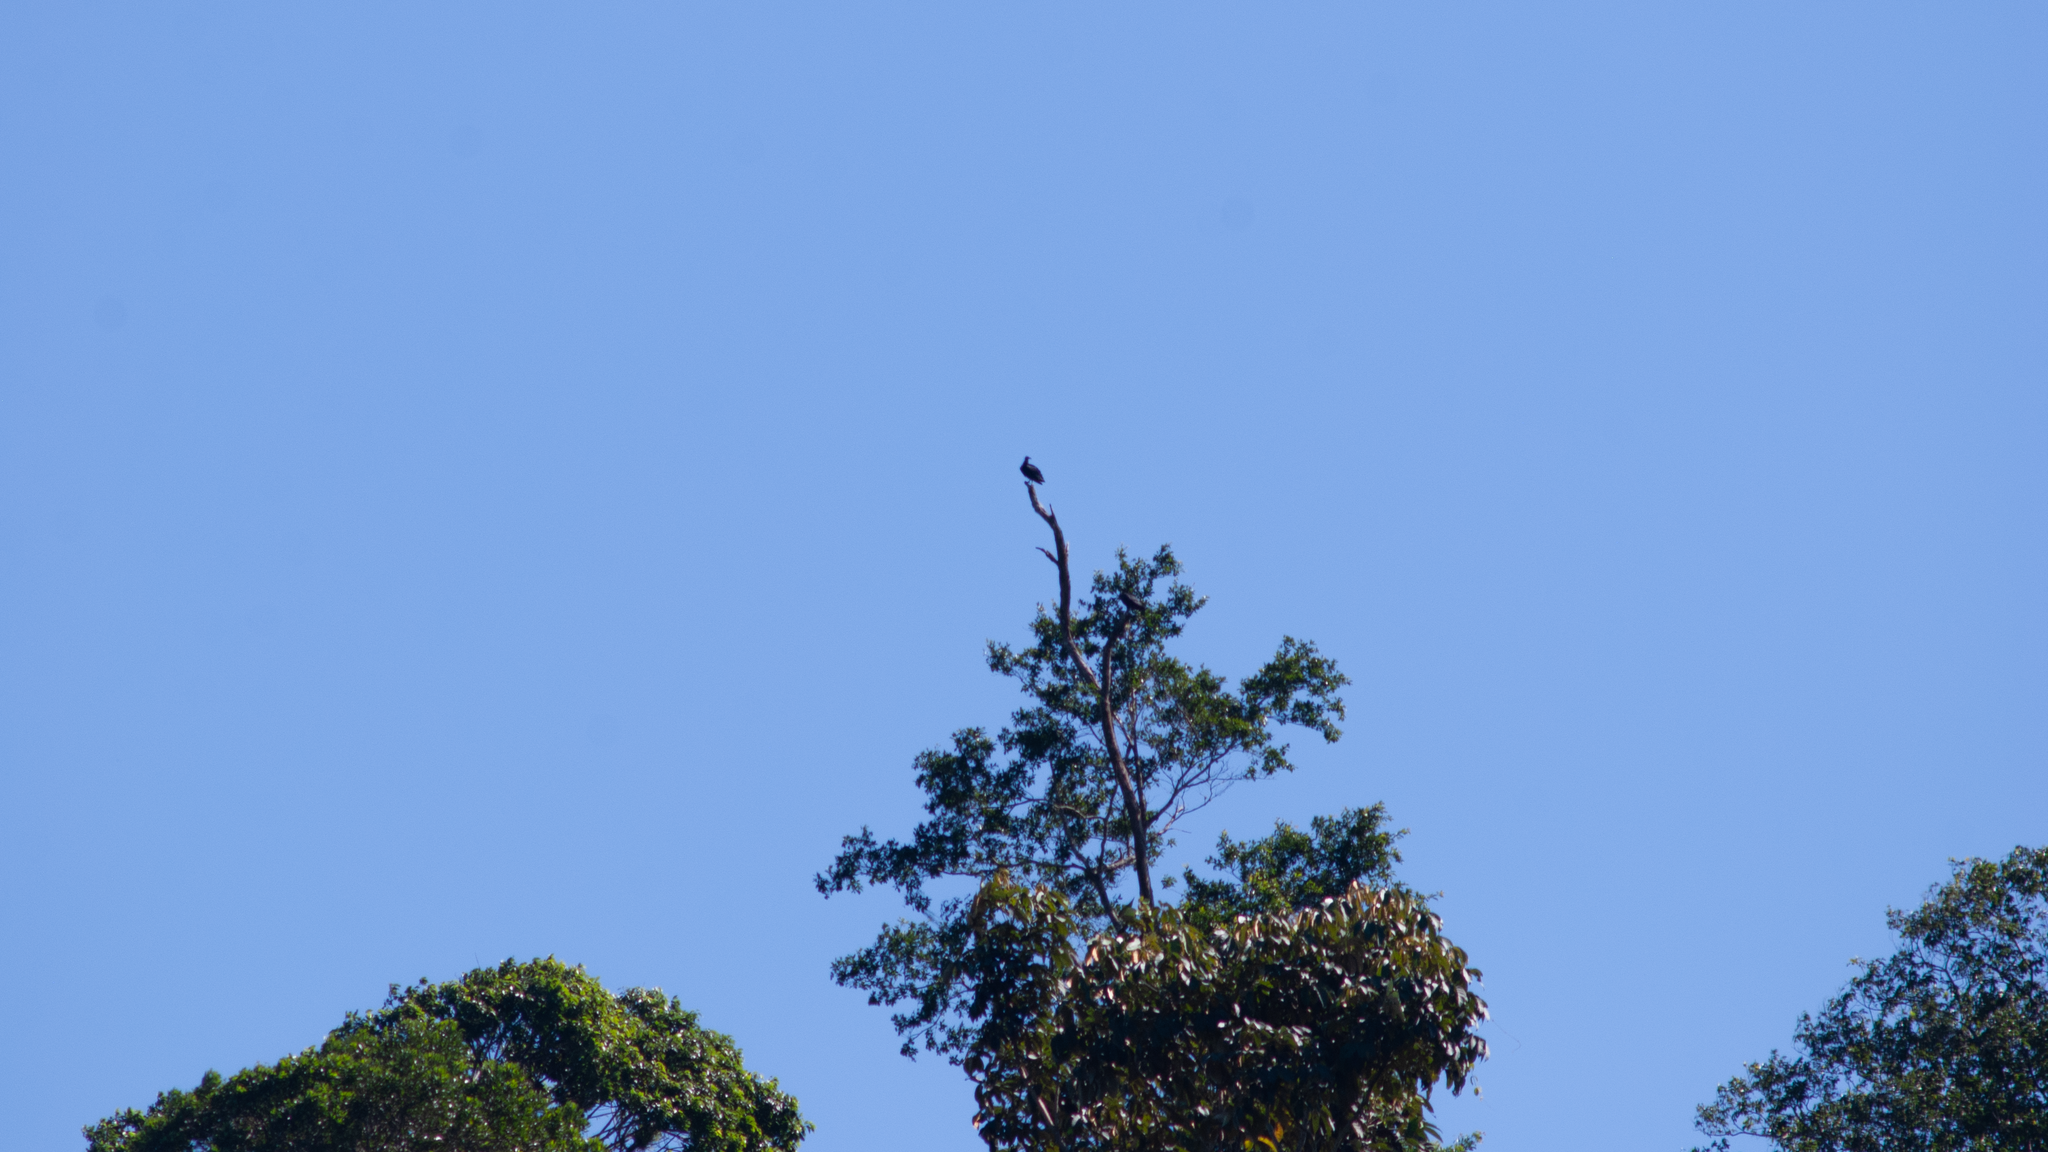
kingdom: Animalia
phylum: Chordata
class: Aves
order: Accipitriformes
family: Cathartidae
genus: Coragyps
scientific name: Coragyps atratus
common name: Black vulture
